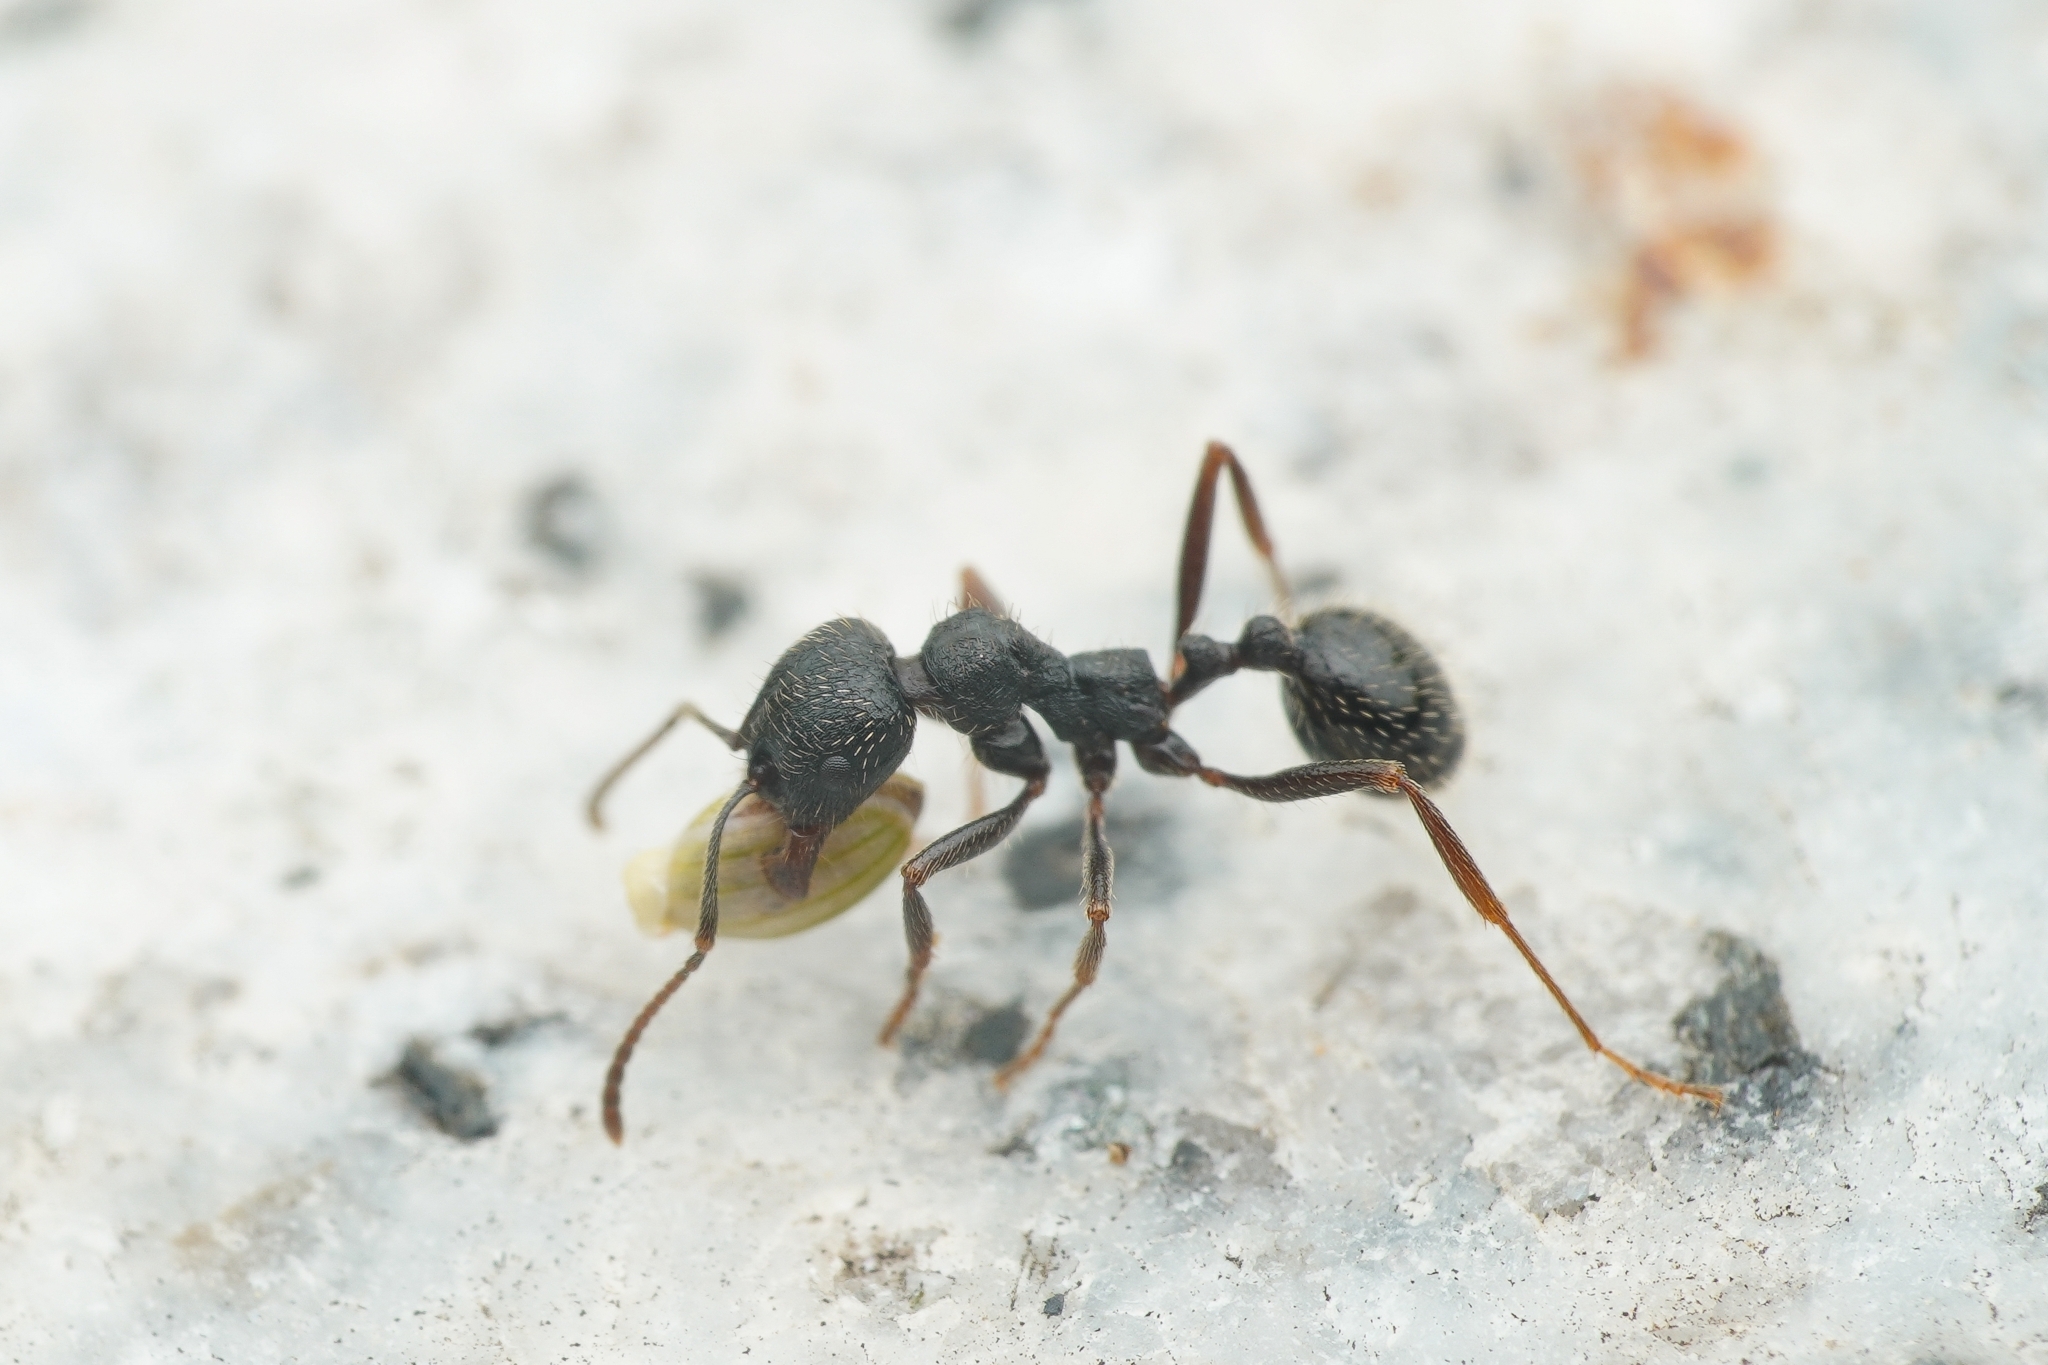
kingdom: Animalia
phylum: Arthropoda
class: Insecta
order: Hymenoptera
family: Formicidae
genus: Messor
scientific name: Messor aciculatus
